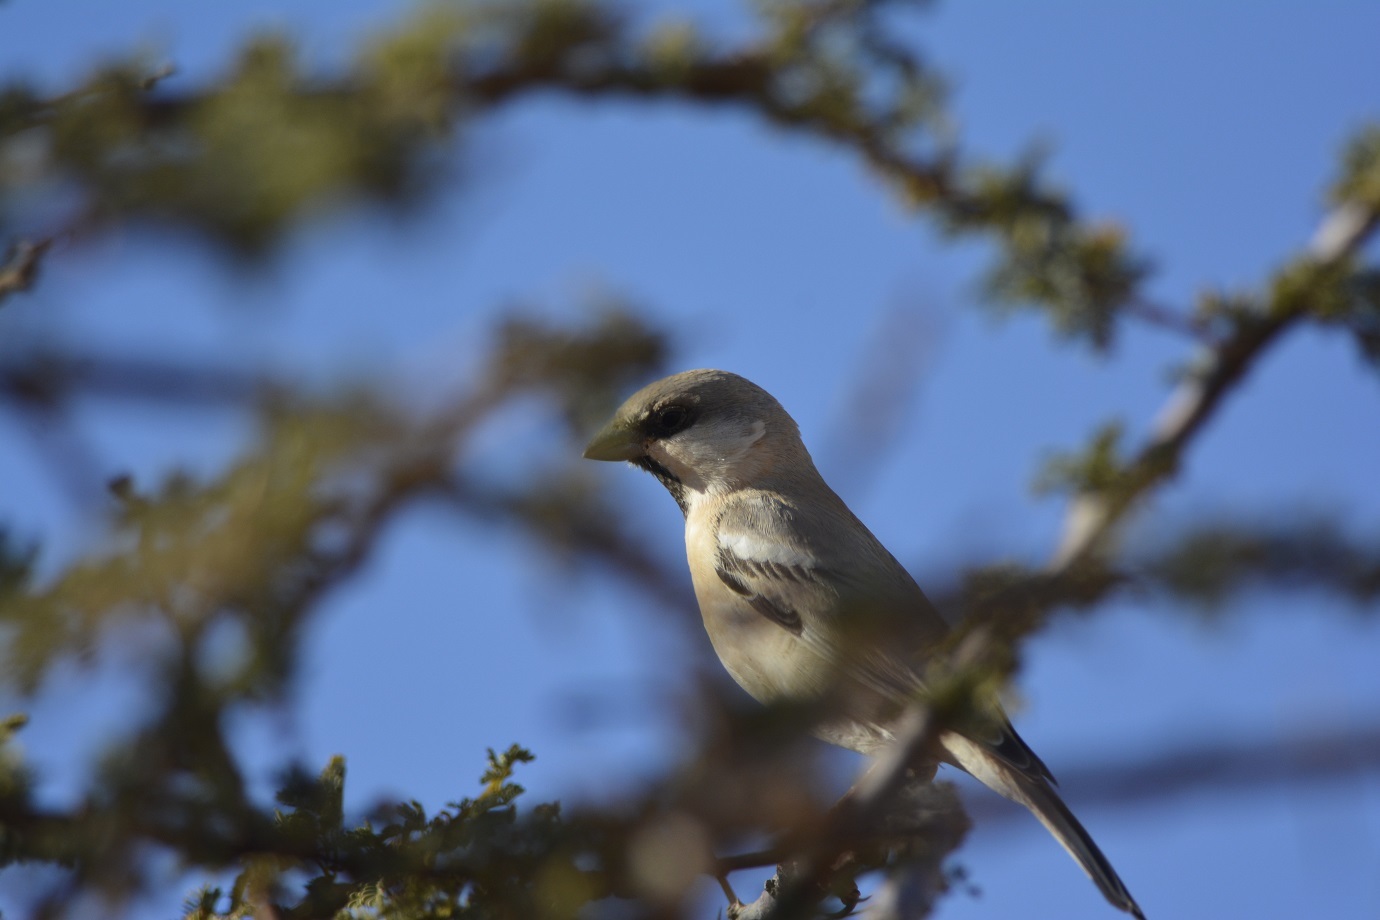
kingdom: Animalia
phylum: Chordata
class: Aves
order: Passeriformes
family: Passeridae
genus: Passer
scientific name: Passer simplex
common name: Desert sparrow
